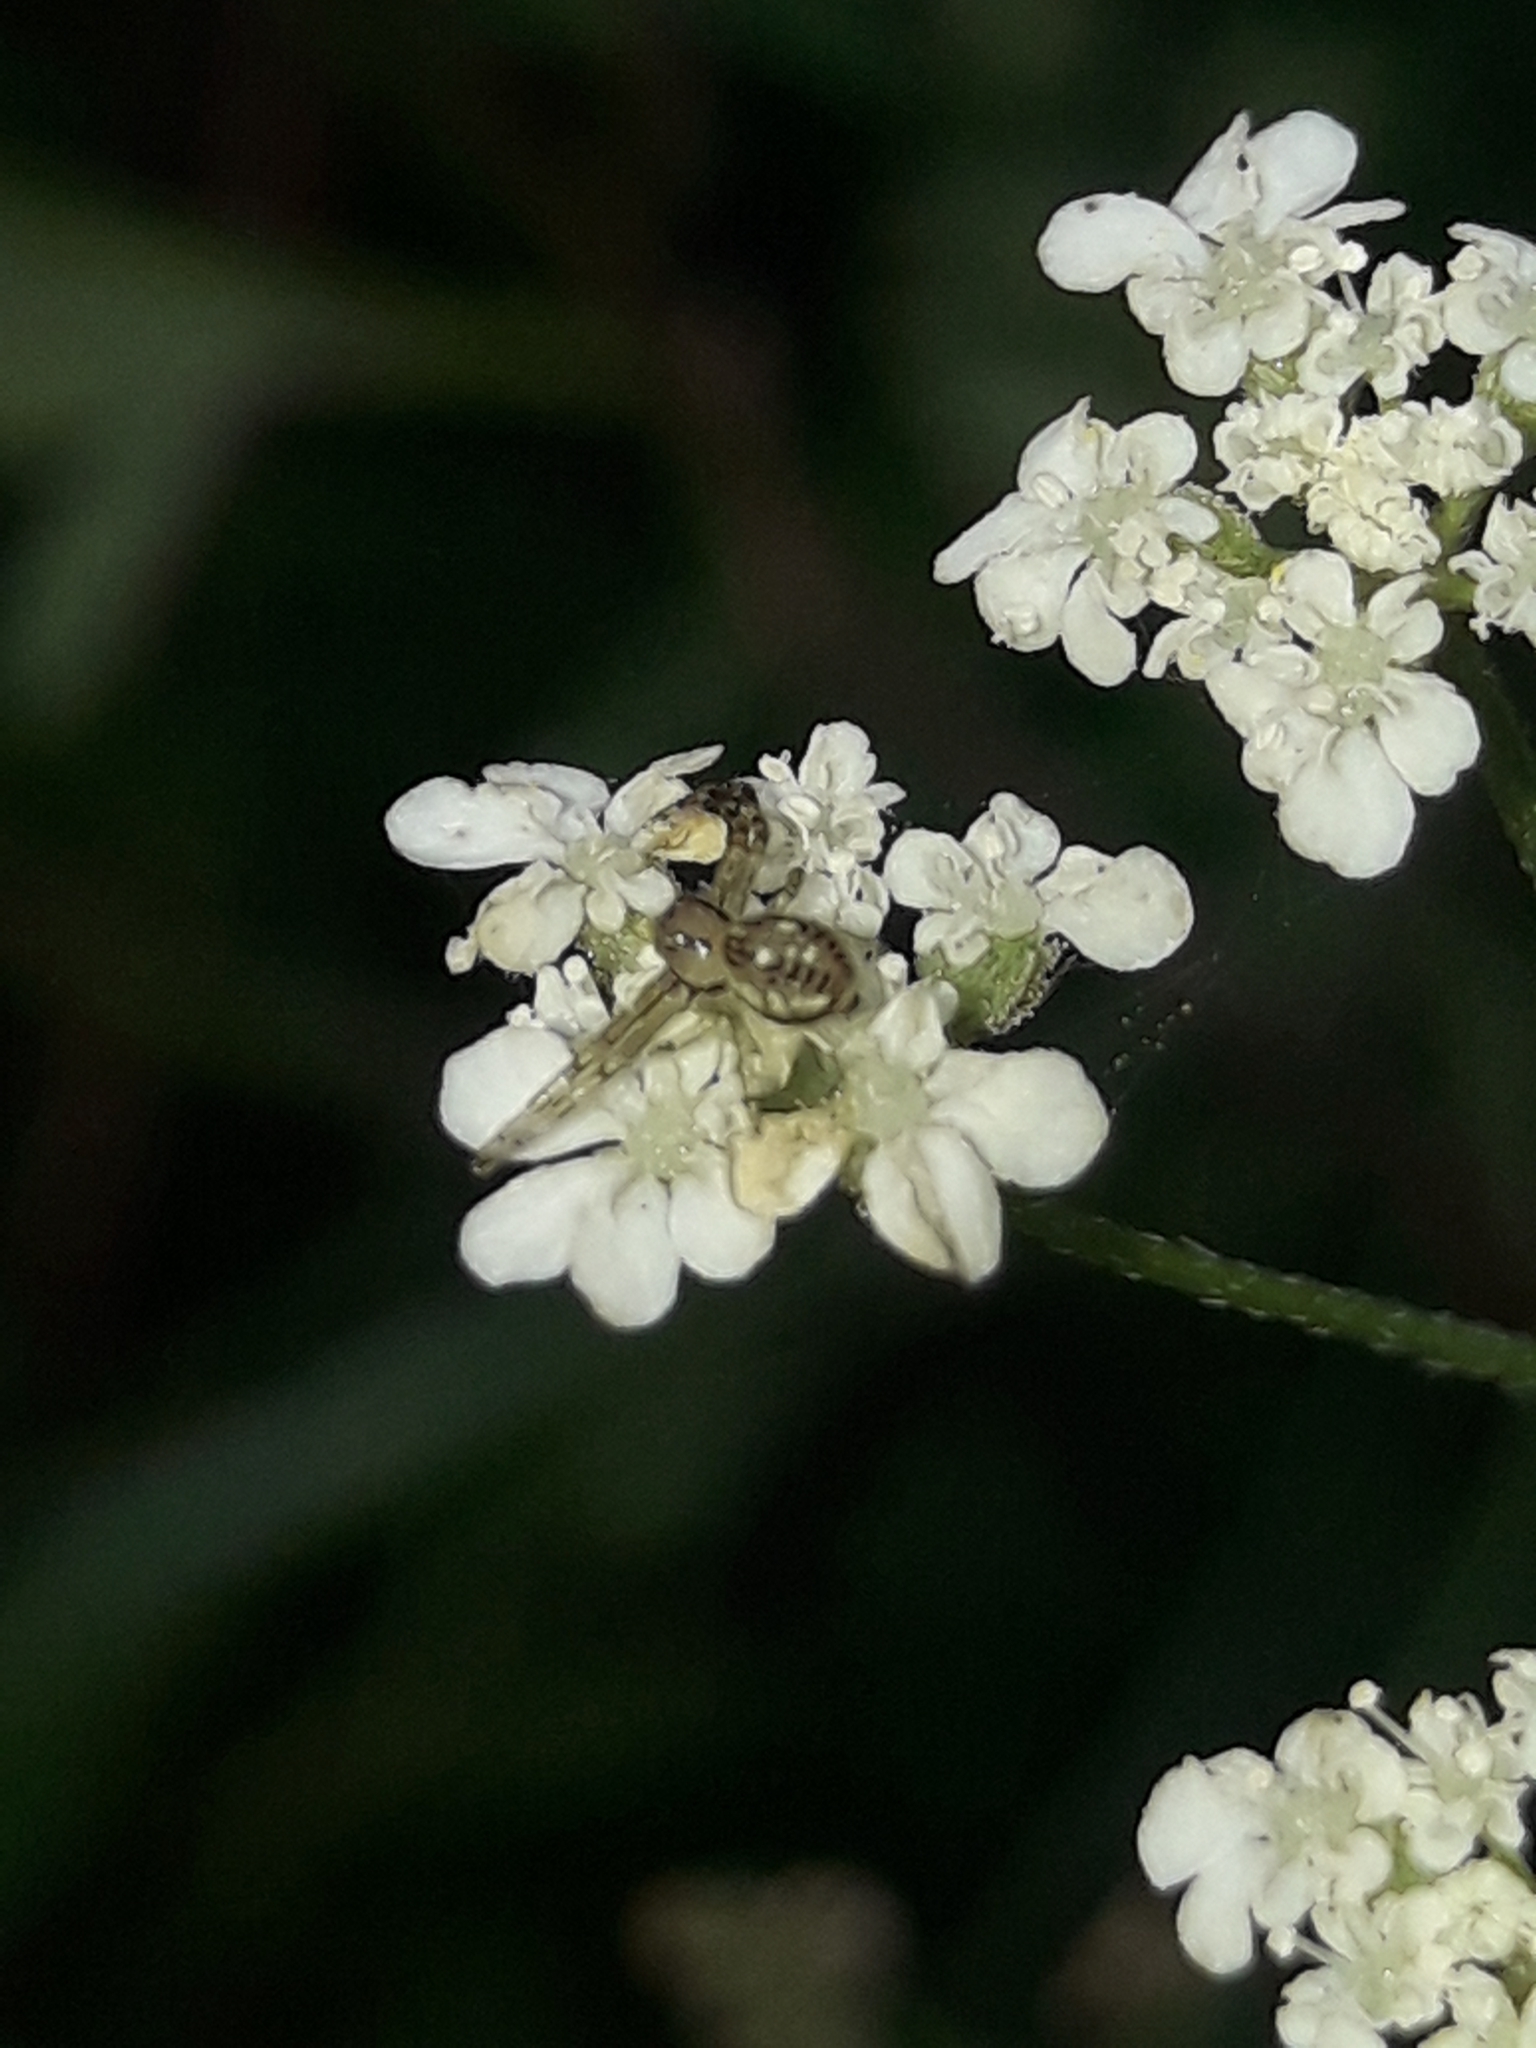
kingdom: Animalia
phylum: Arthropoda
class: Arachnida
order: Araneae
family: Thomisidae
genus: Diaea
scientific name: Diaea ambara
